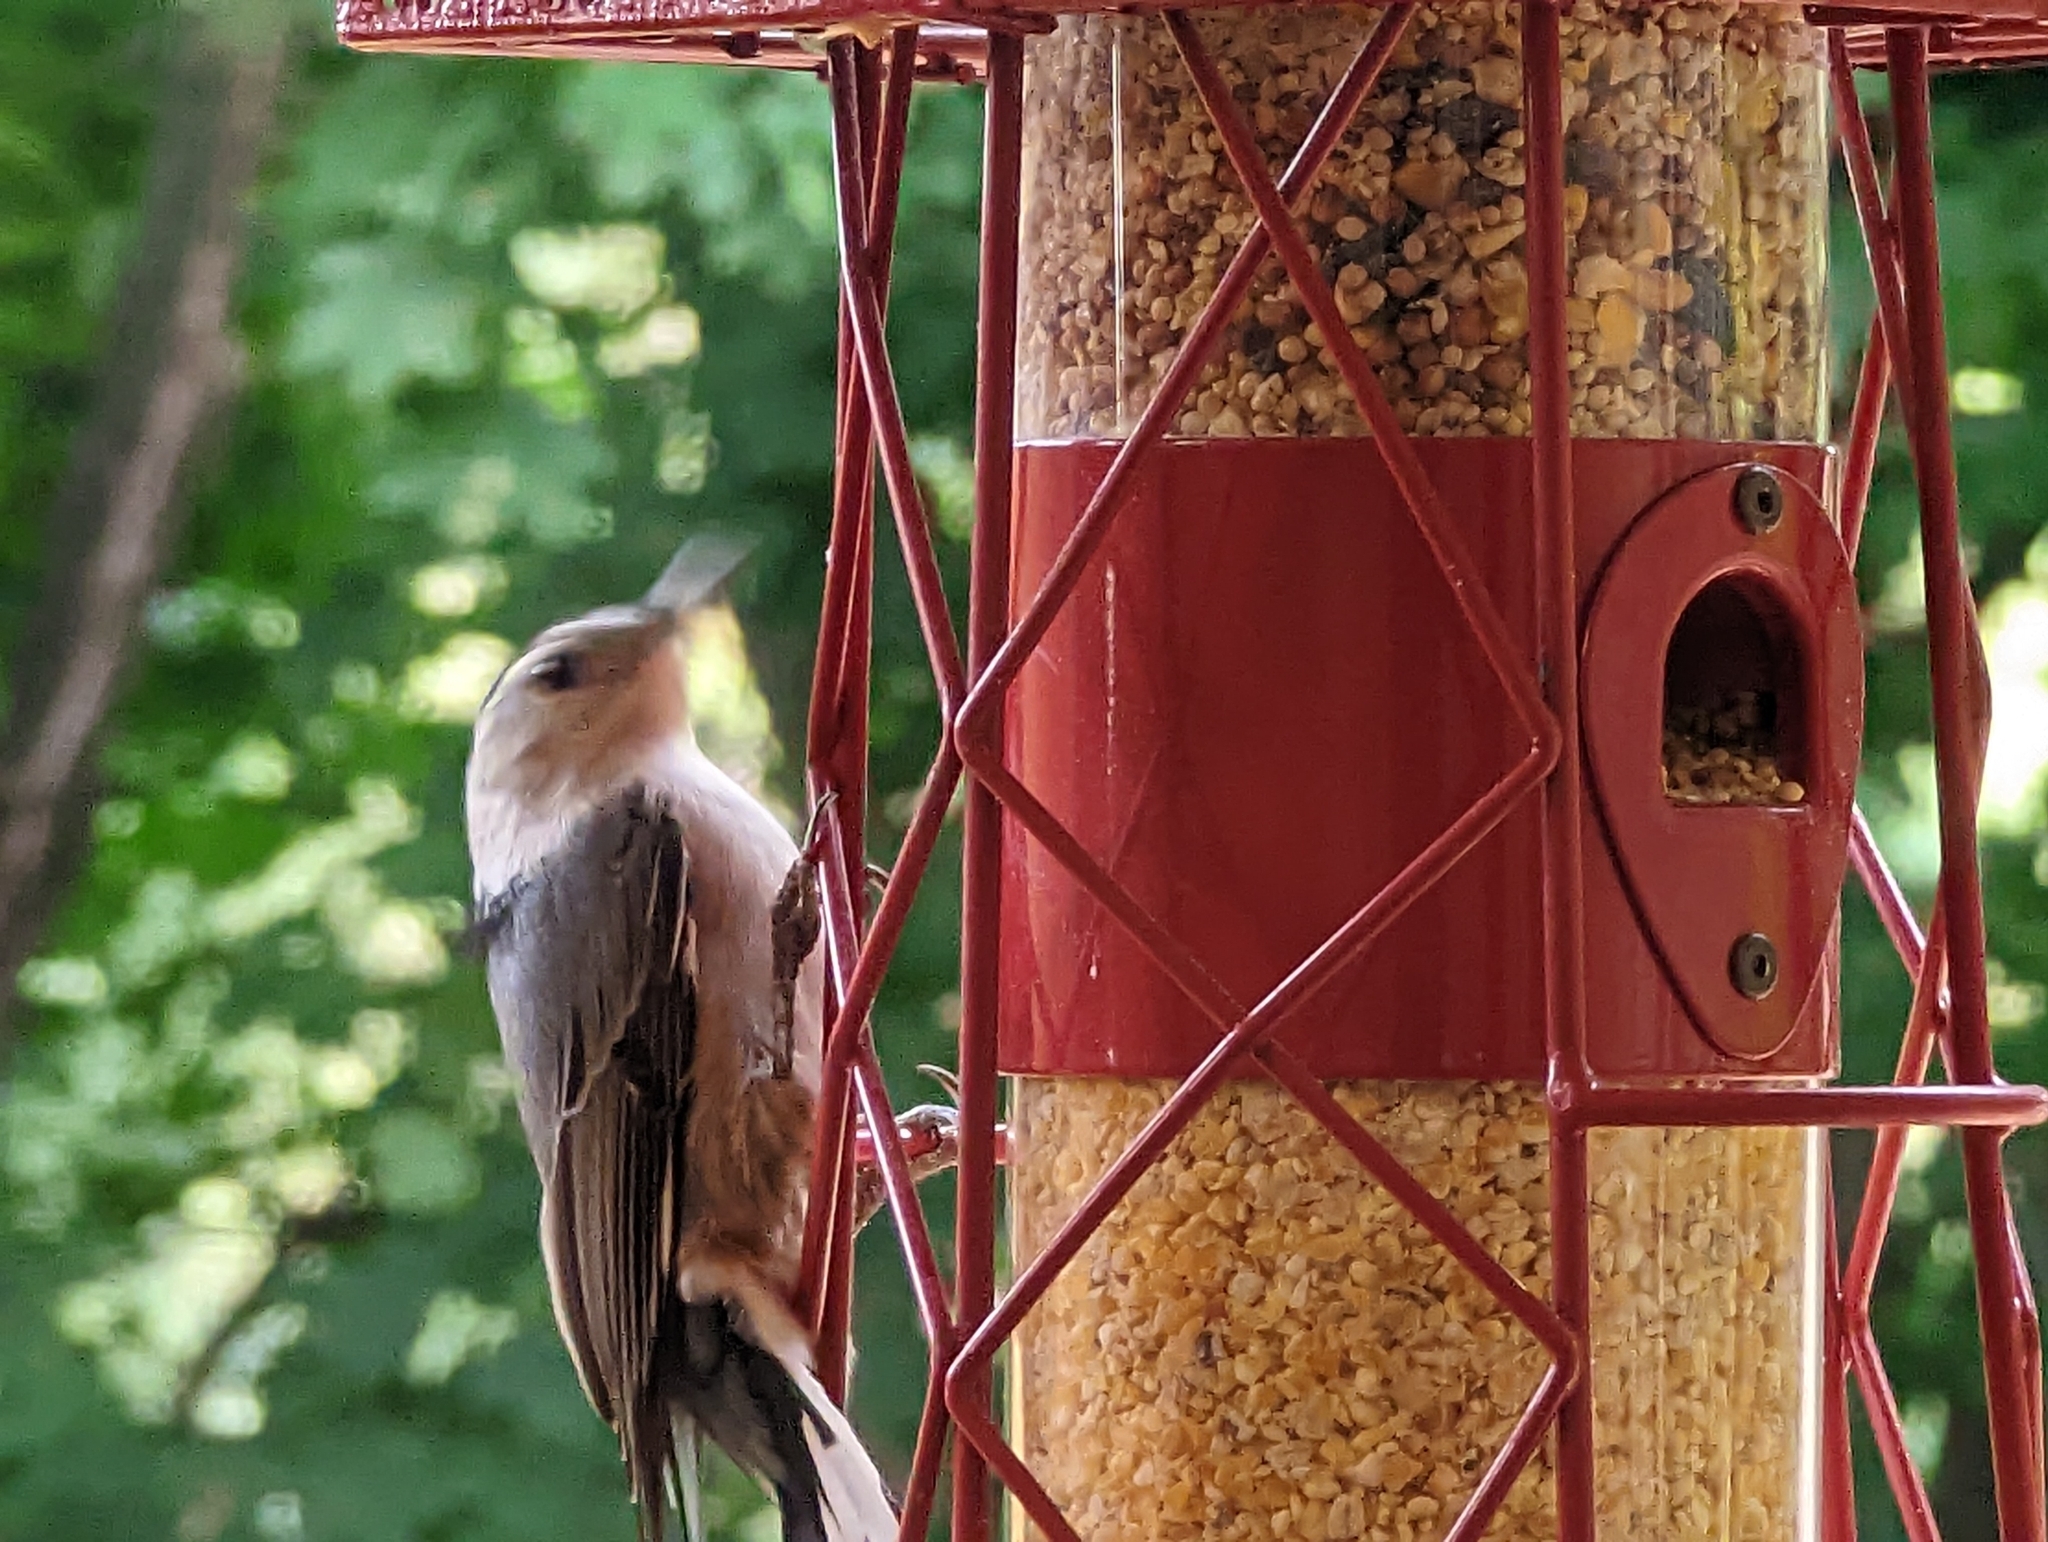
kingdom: Animalia
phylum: Chordata
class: Aves
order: Passeriformes
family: Sittidae
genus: Sitta
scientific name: Sitta carolinensis
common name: White-breasted nuthatch
